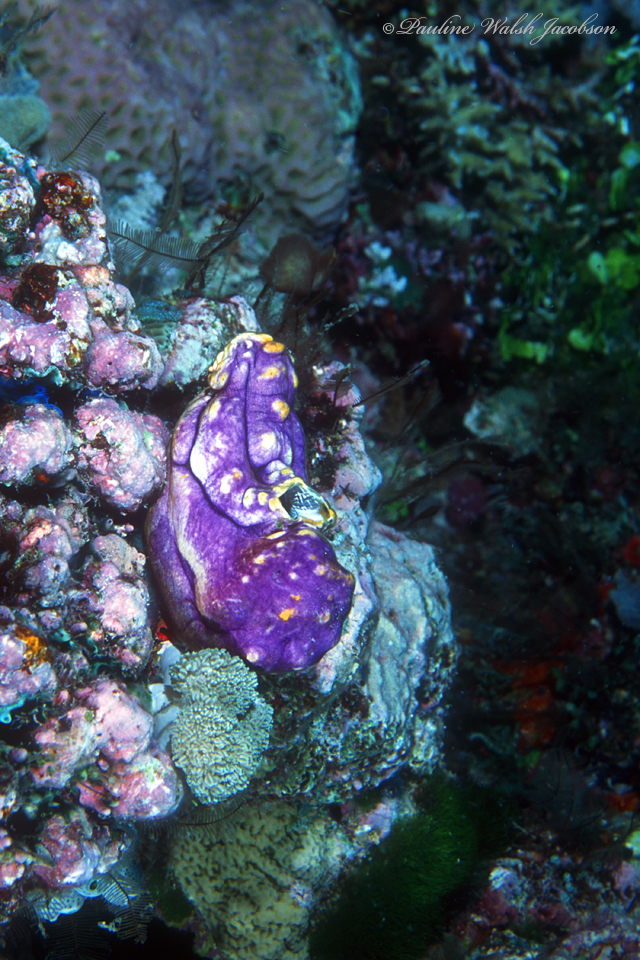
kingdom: Animalia
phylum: Chordata
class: Ascidiacea
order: Stolidobranchia
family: Styelidae
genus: Polycarpa
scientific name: Polycarpa aurata
